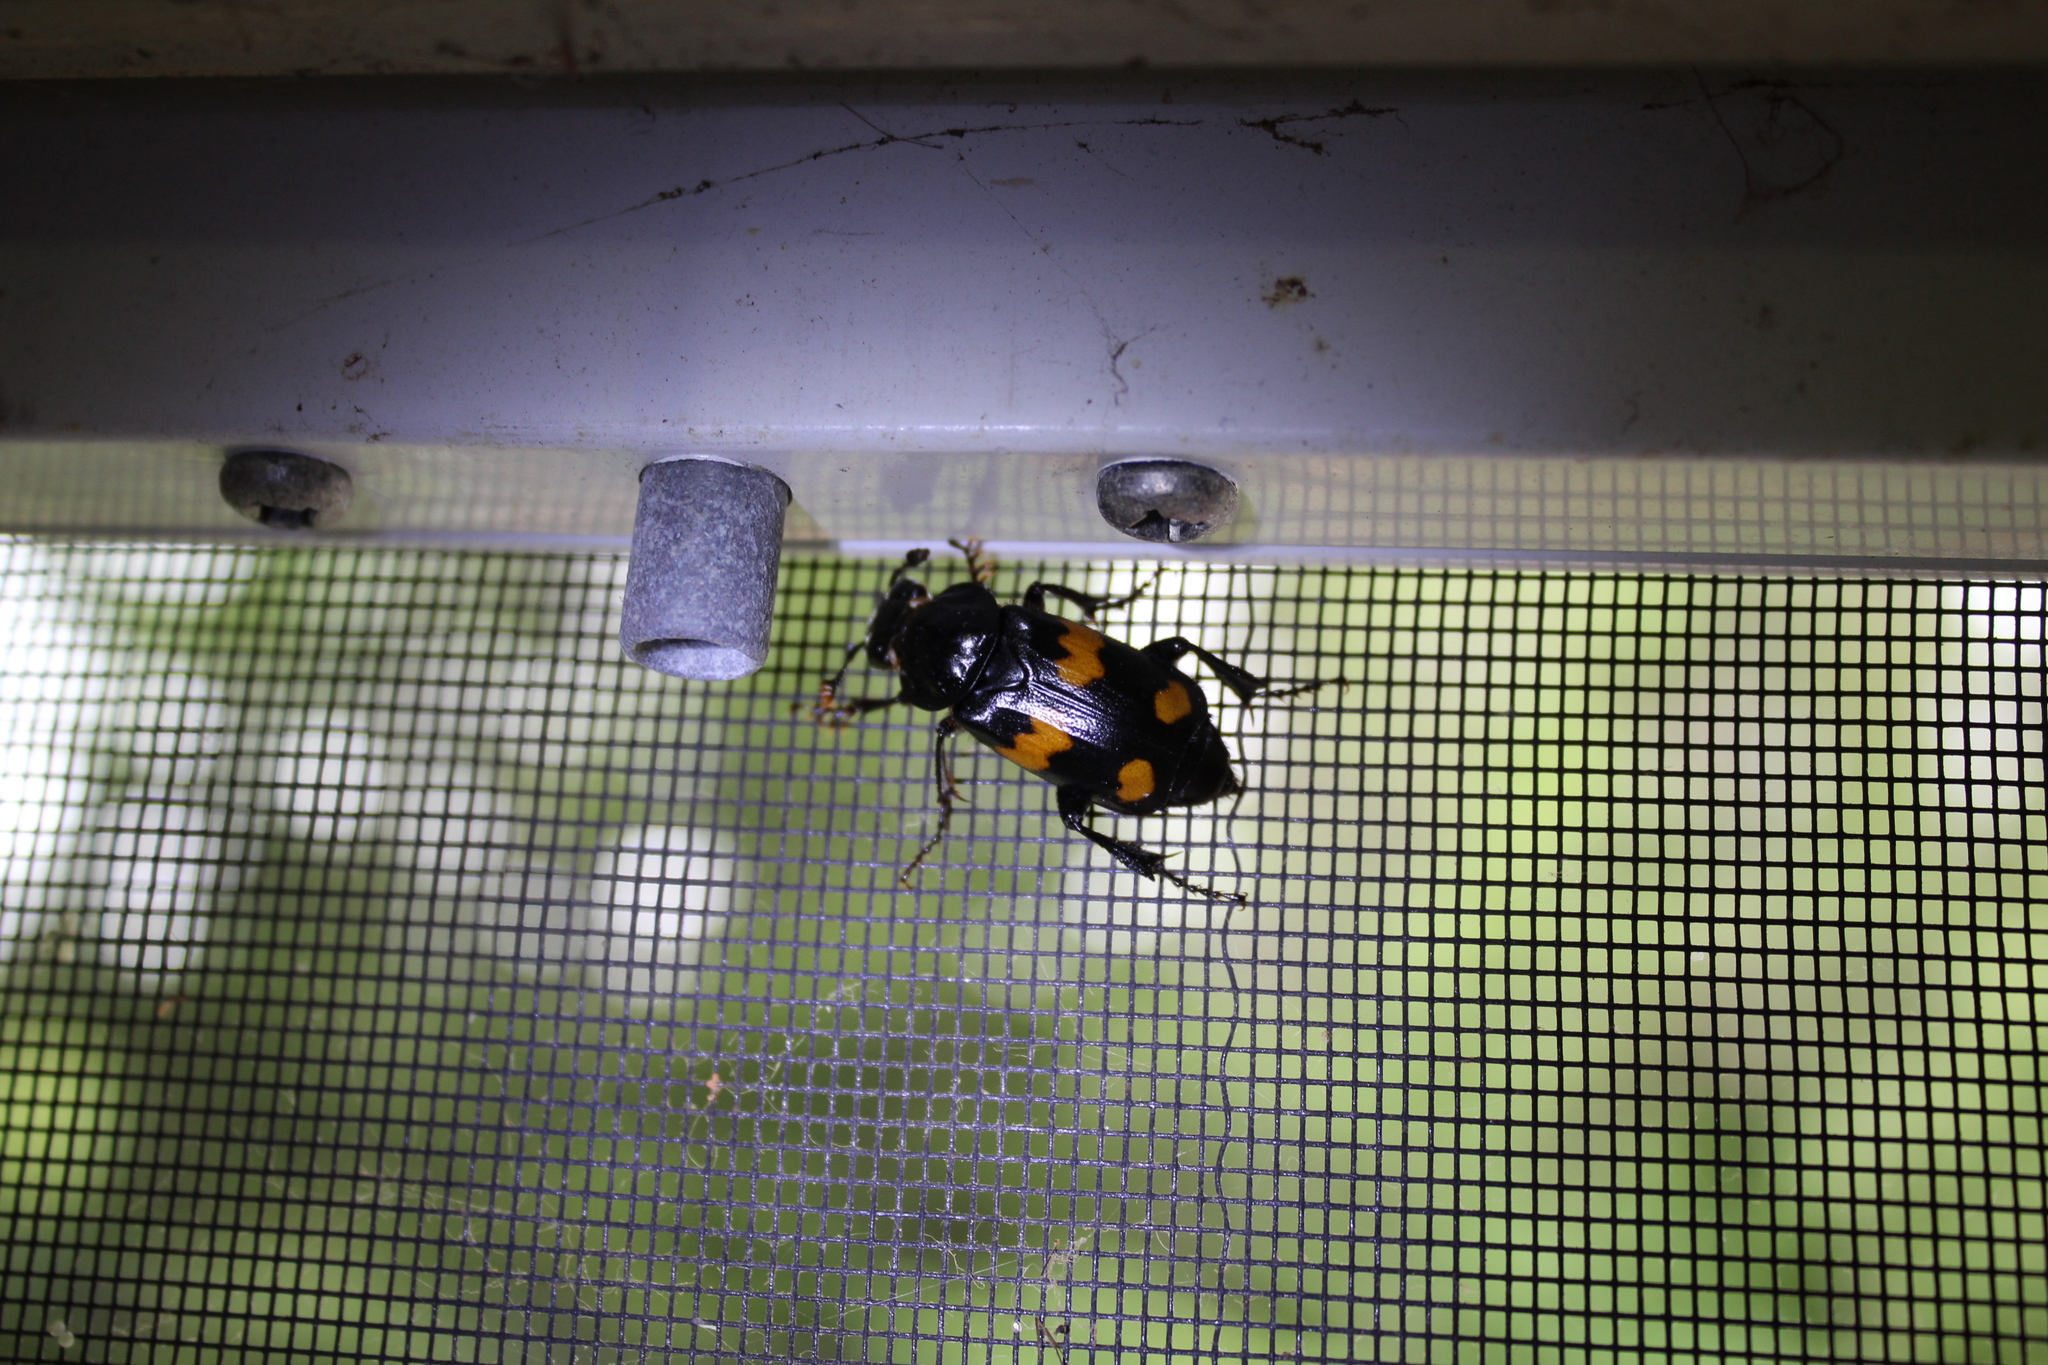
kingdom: Animalia
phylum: Arthropoda
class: Insecta
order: Coleoptera
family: Staphylinidae
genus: Nicrophorus
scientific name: Nicrophorus orbicollis
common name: Roundneck sexton beetle
